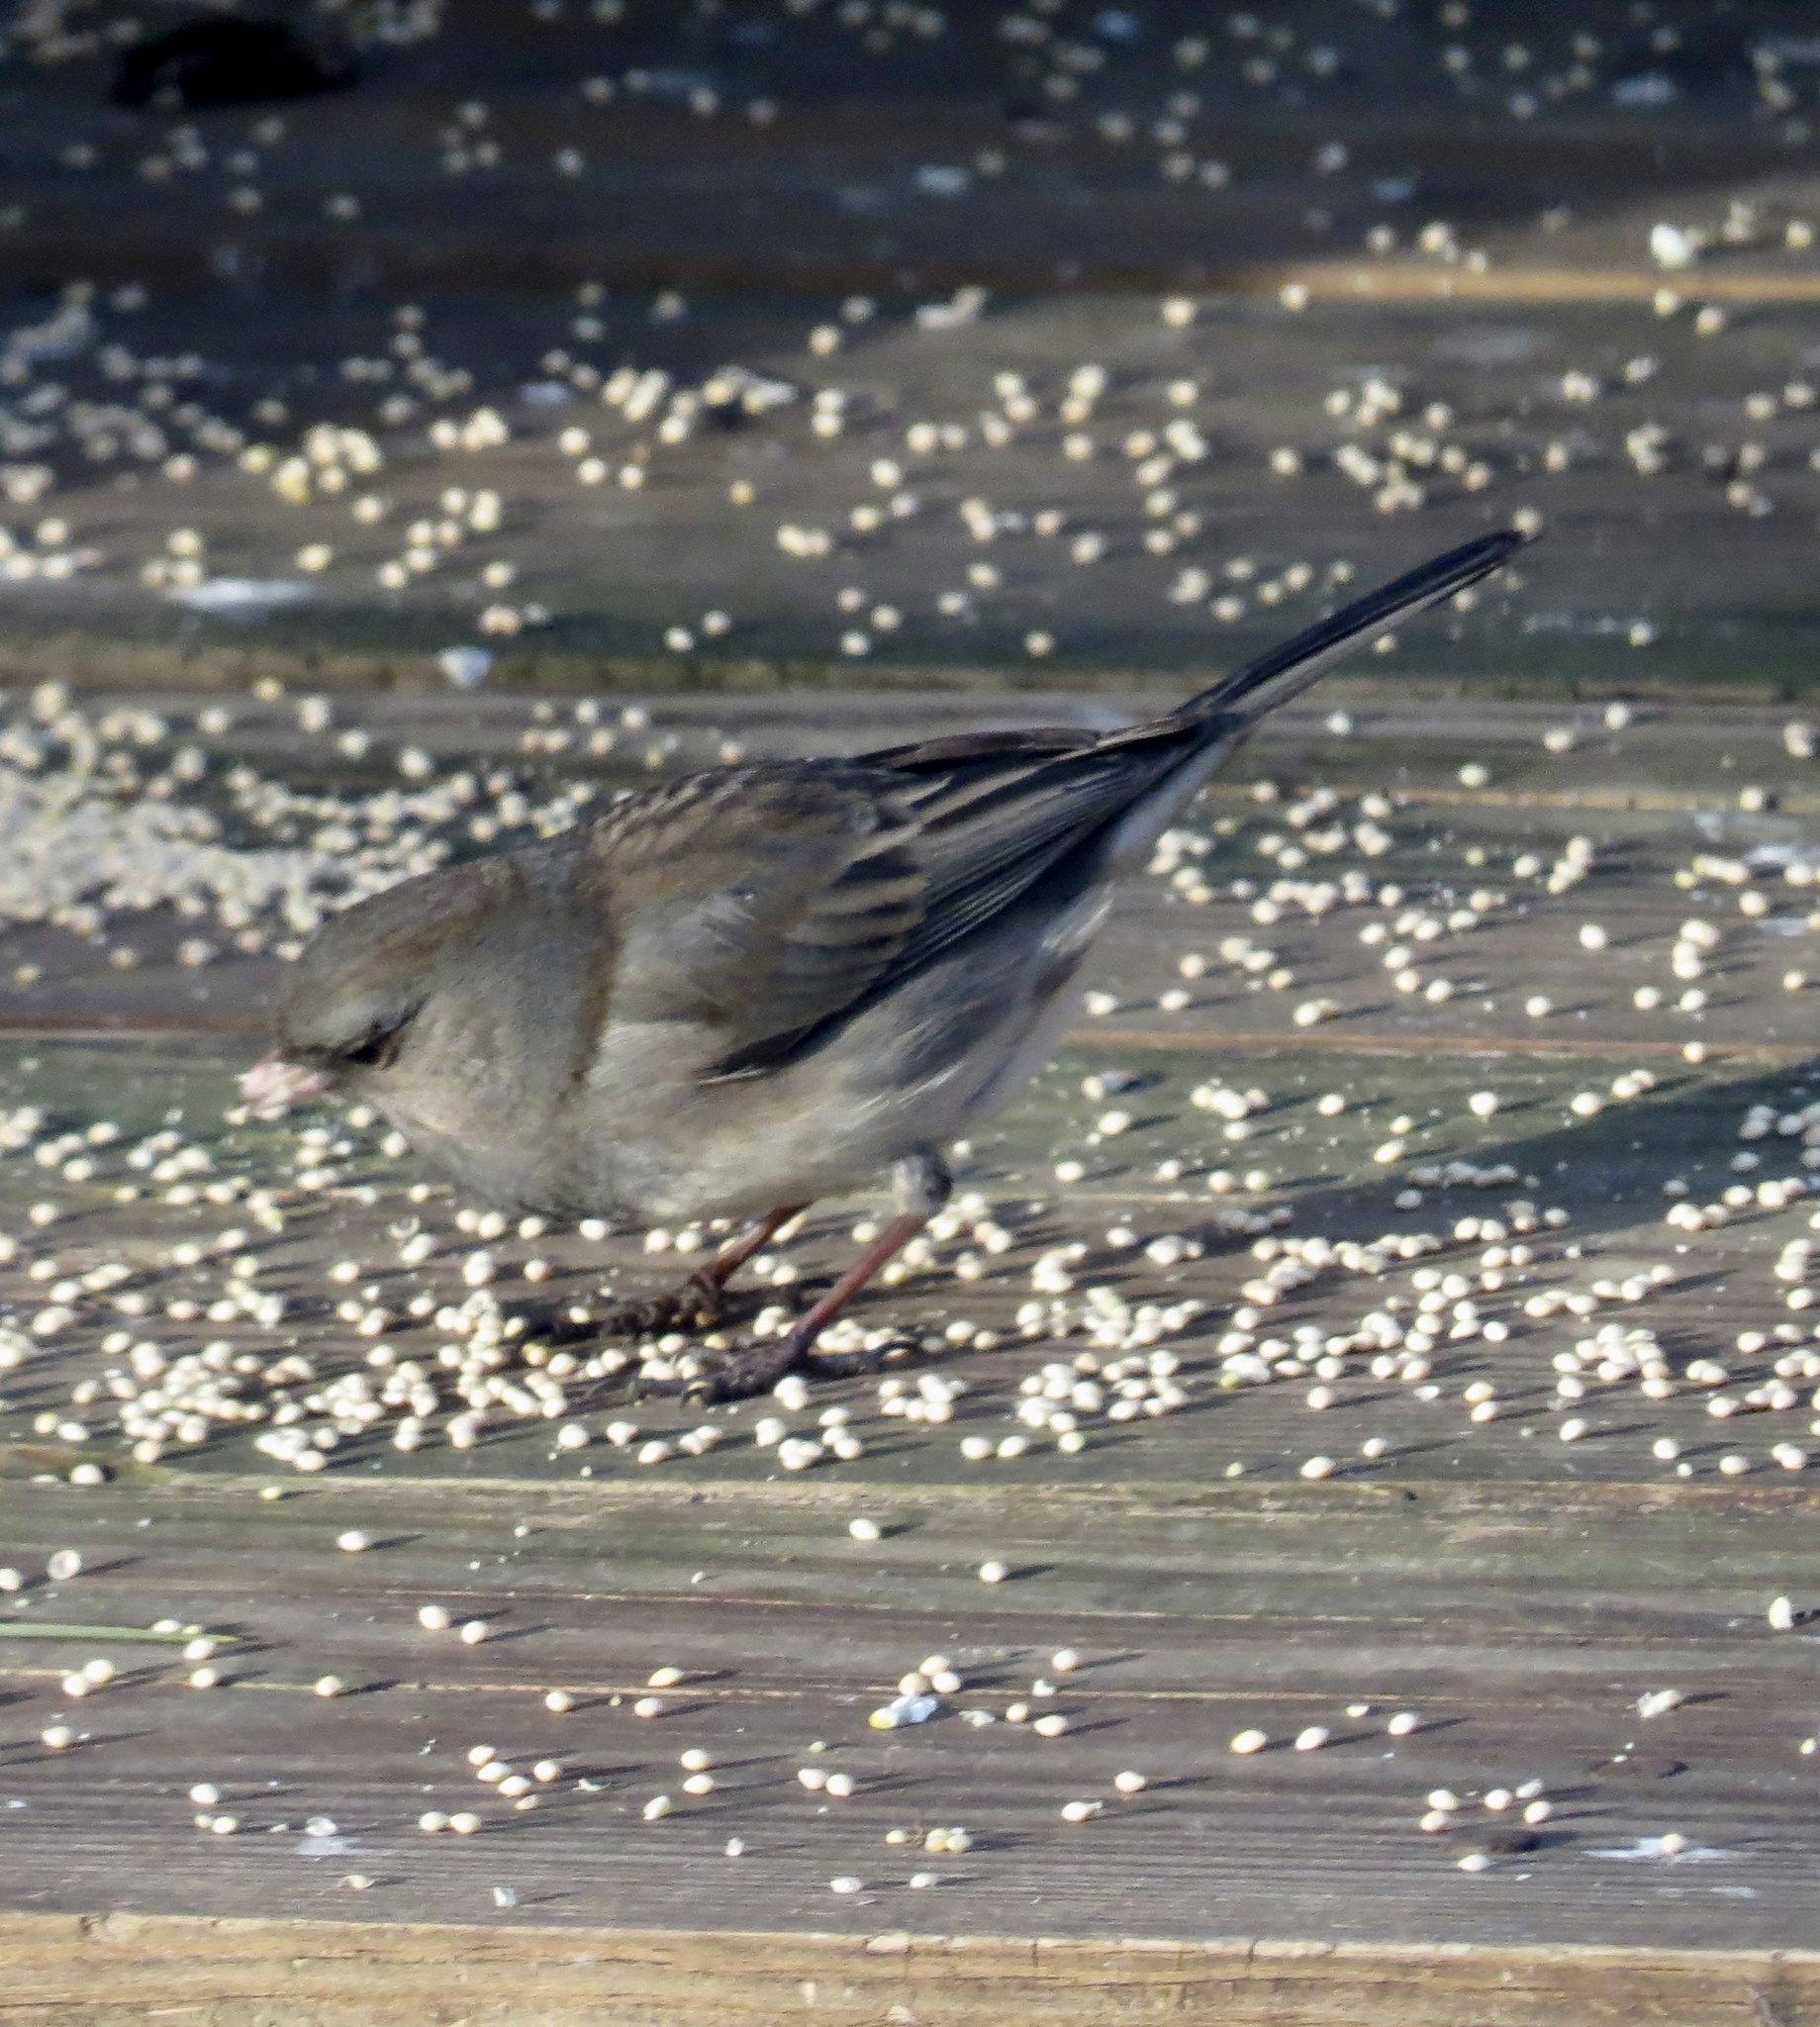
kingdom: Animalia
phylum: Chordata
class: Aves
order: Passeriformes
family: Passerellidae
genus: Junco
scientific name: Junco hyemalis
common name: Dark-eyed junco
